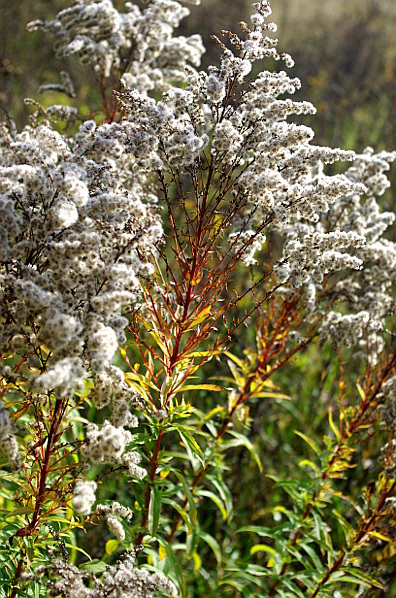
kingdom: Plantae
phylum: Tracheophyta
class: Magnoliopsida
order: Asterales
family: Asteraceae
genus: Solidago
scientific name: Solidago canadensis
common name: Canada goldenrod
